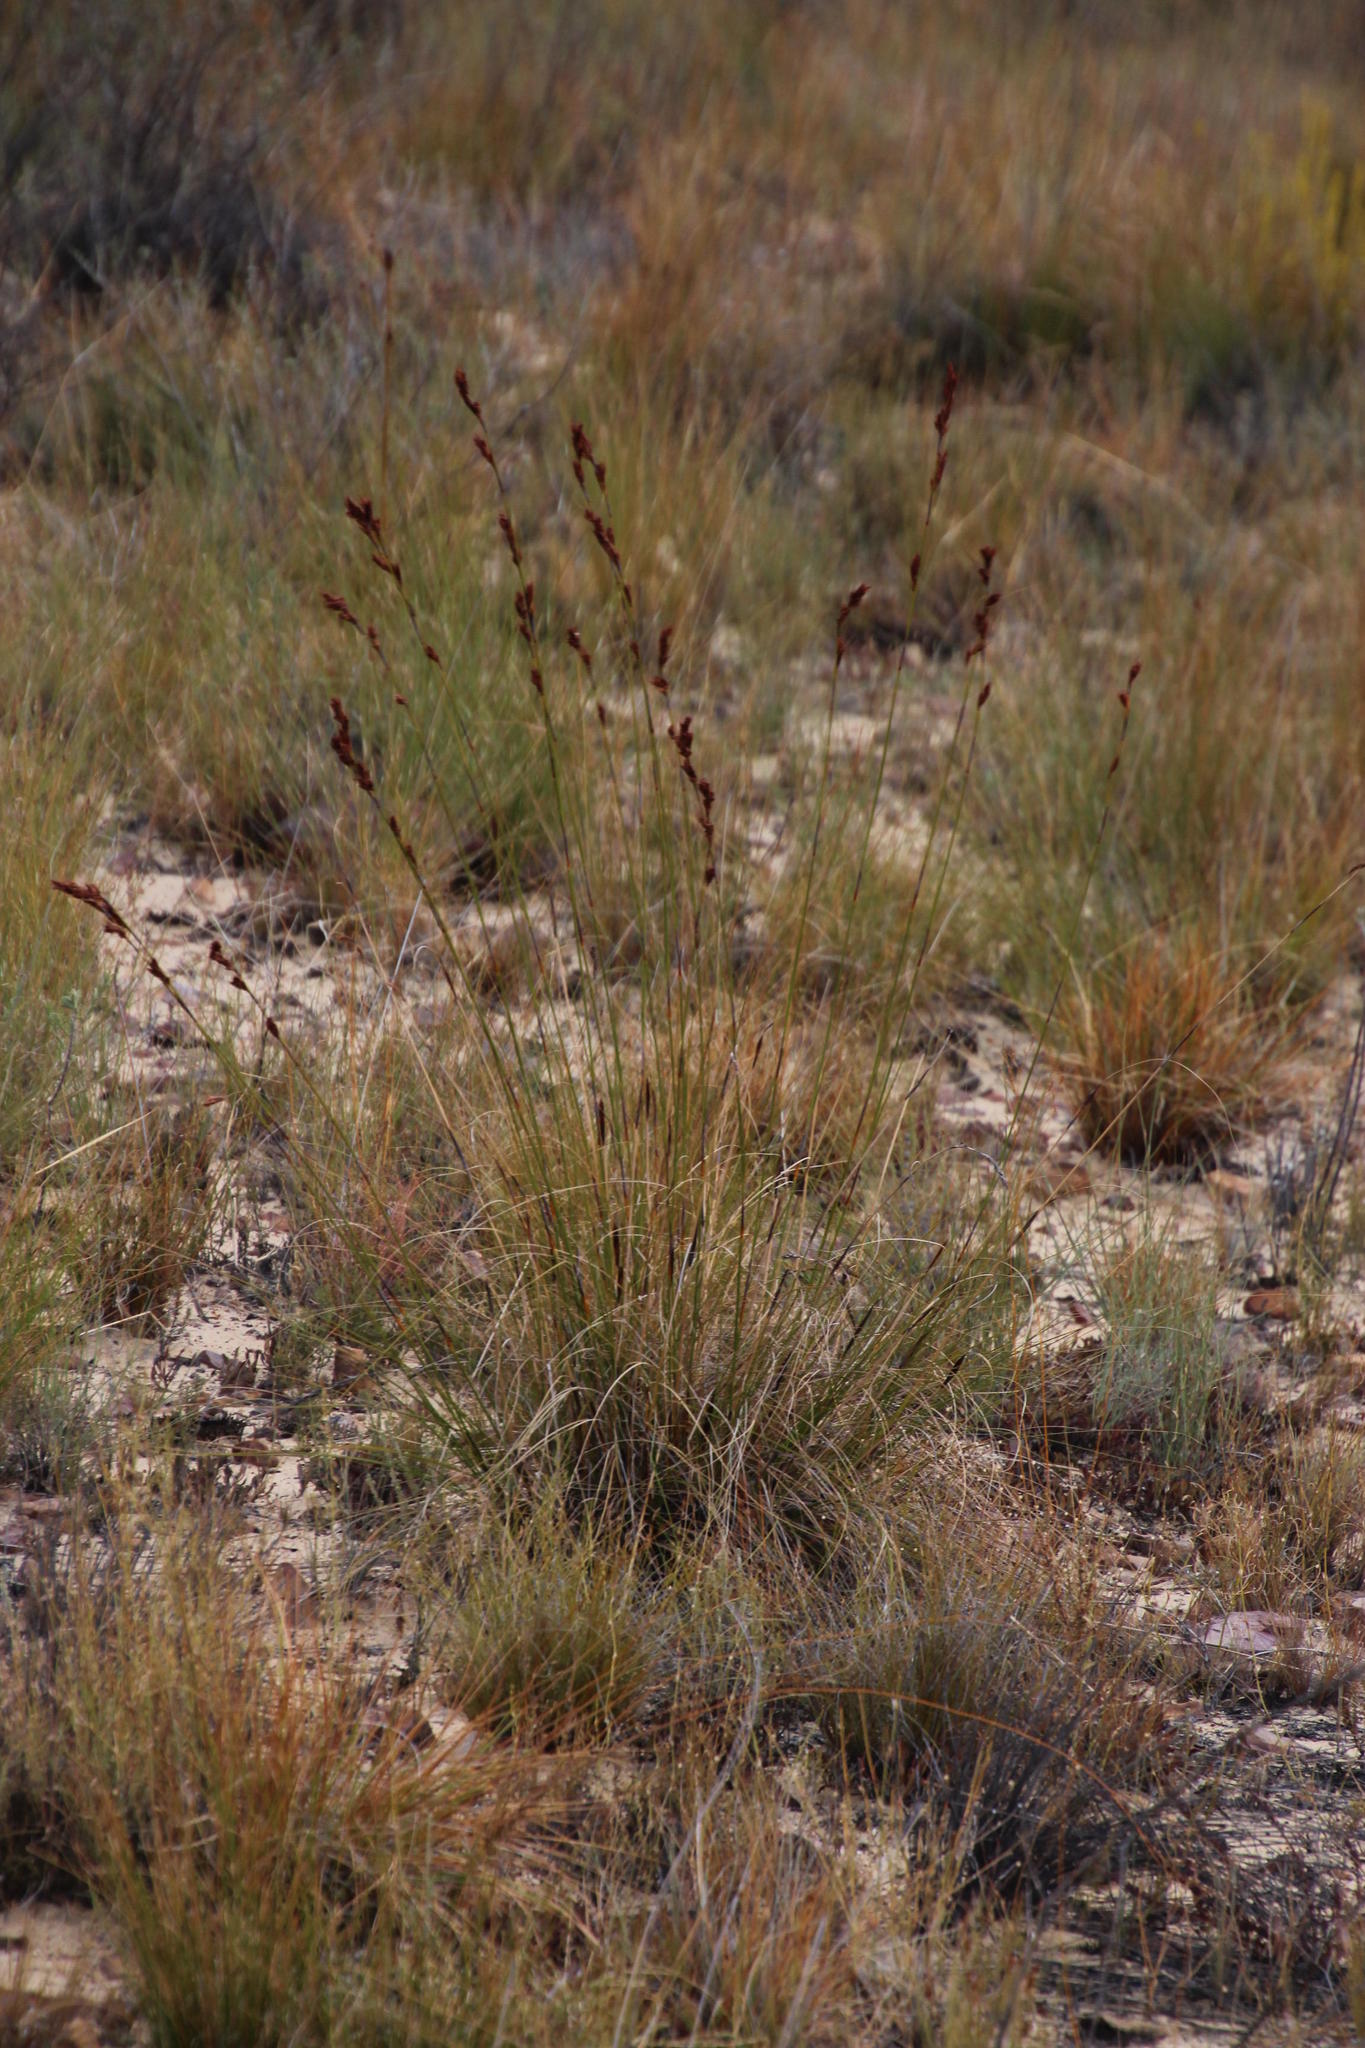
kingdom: Plantae
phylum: Tracheophyta
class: Liliopsida
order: Poales
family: Cyperaceae
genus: Tetraria
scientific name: Tetraria ustulata
